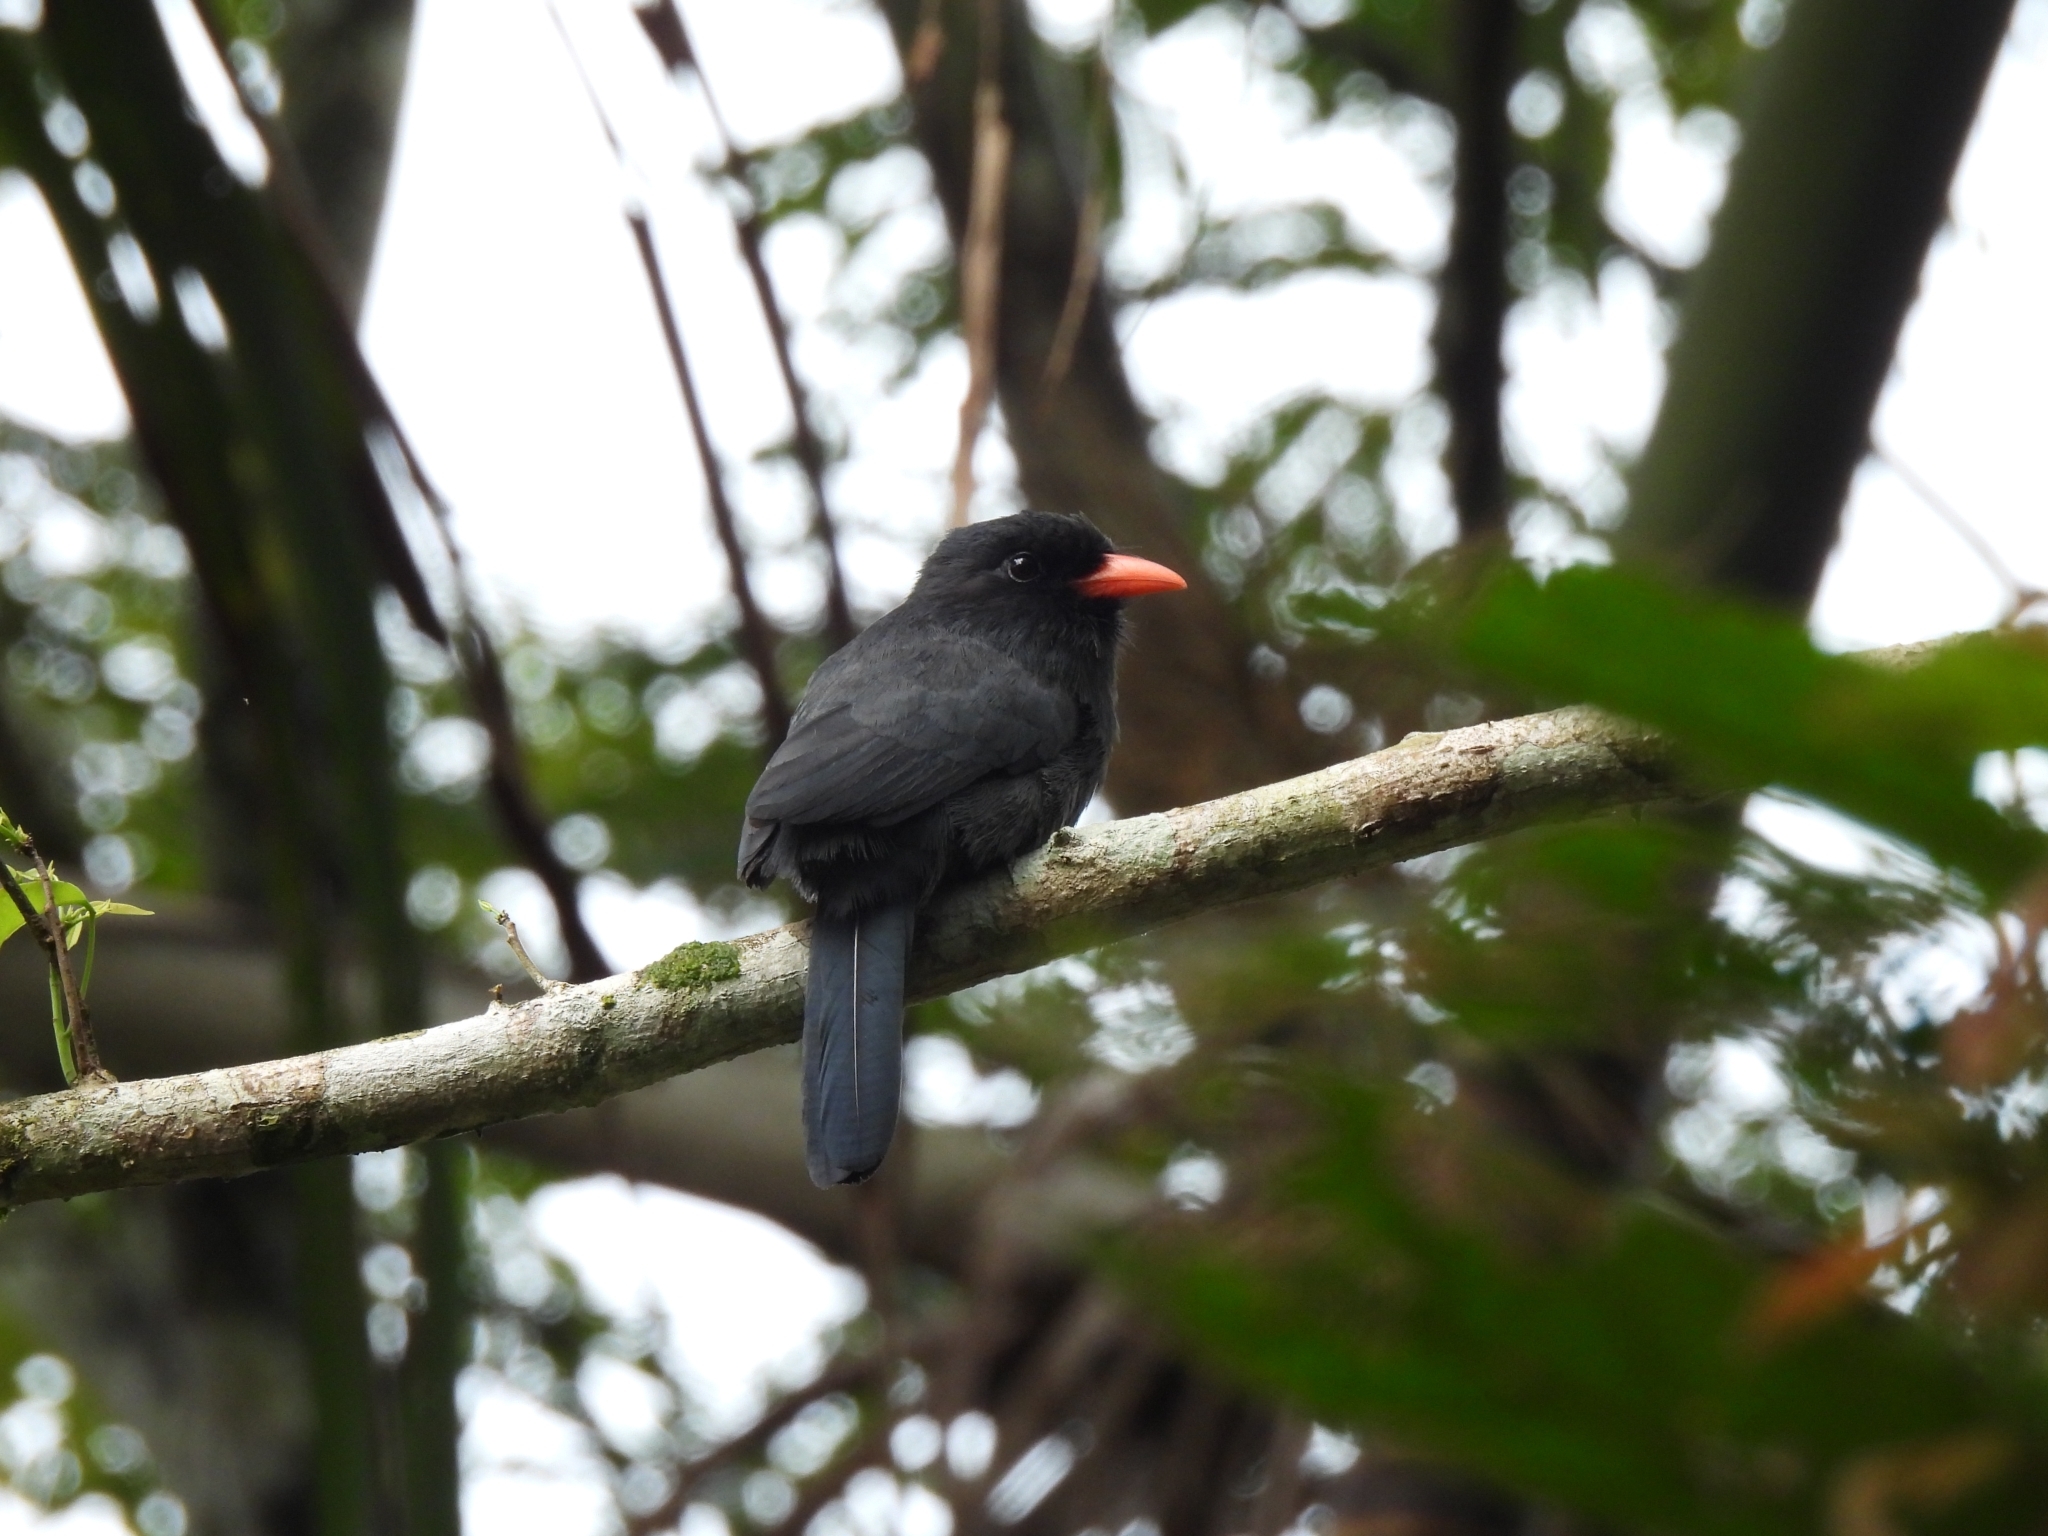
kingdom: Animalia
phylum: Chordata
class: Aves
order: Piciformes
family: Bucconidae
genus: Monasa
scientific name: Monasa nigrifrons
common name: Black-fronted nunbird
